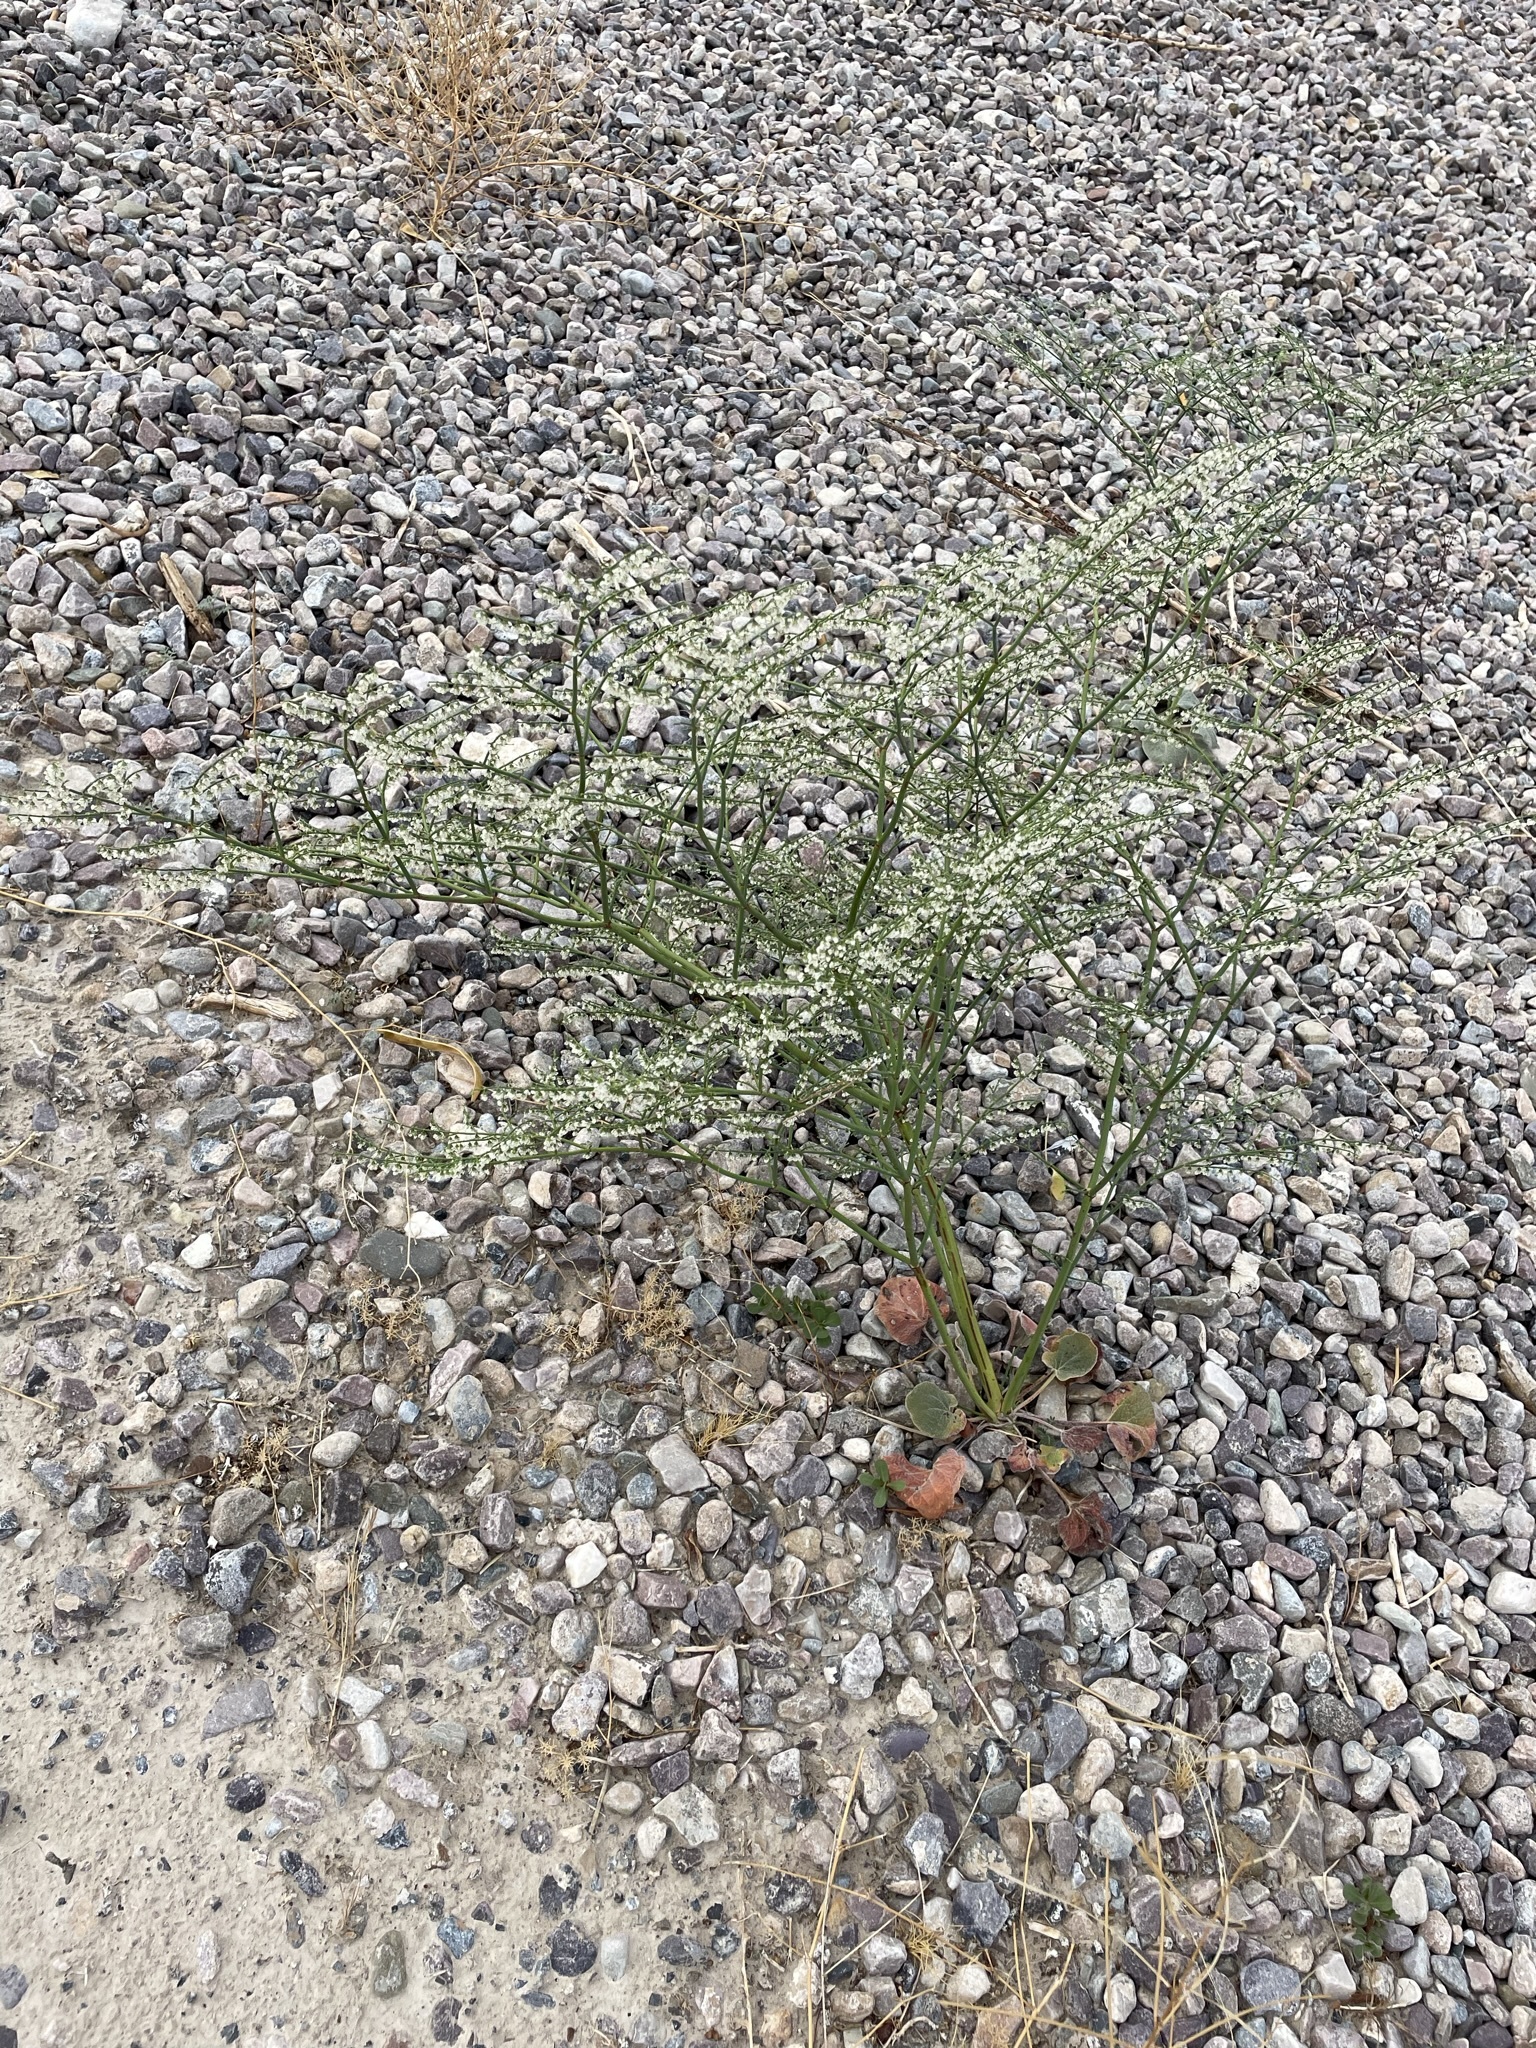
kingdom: Plantae
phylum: Tracheophyta
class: Magnoliopsida
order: Caryophyllales
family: Polygonaceae
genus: Eriogonum
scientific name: Eriogonum deflexum
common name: Skeleton-weed
